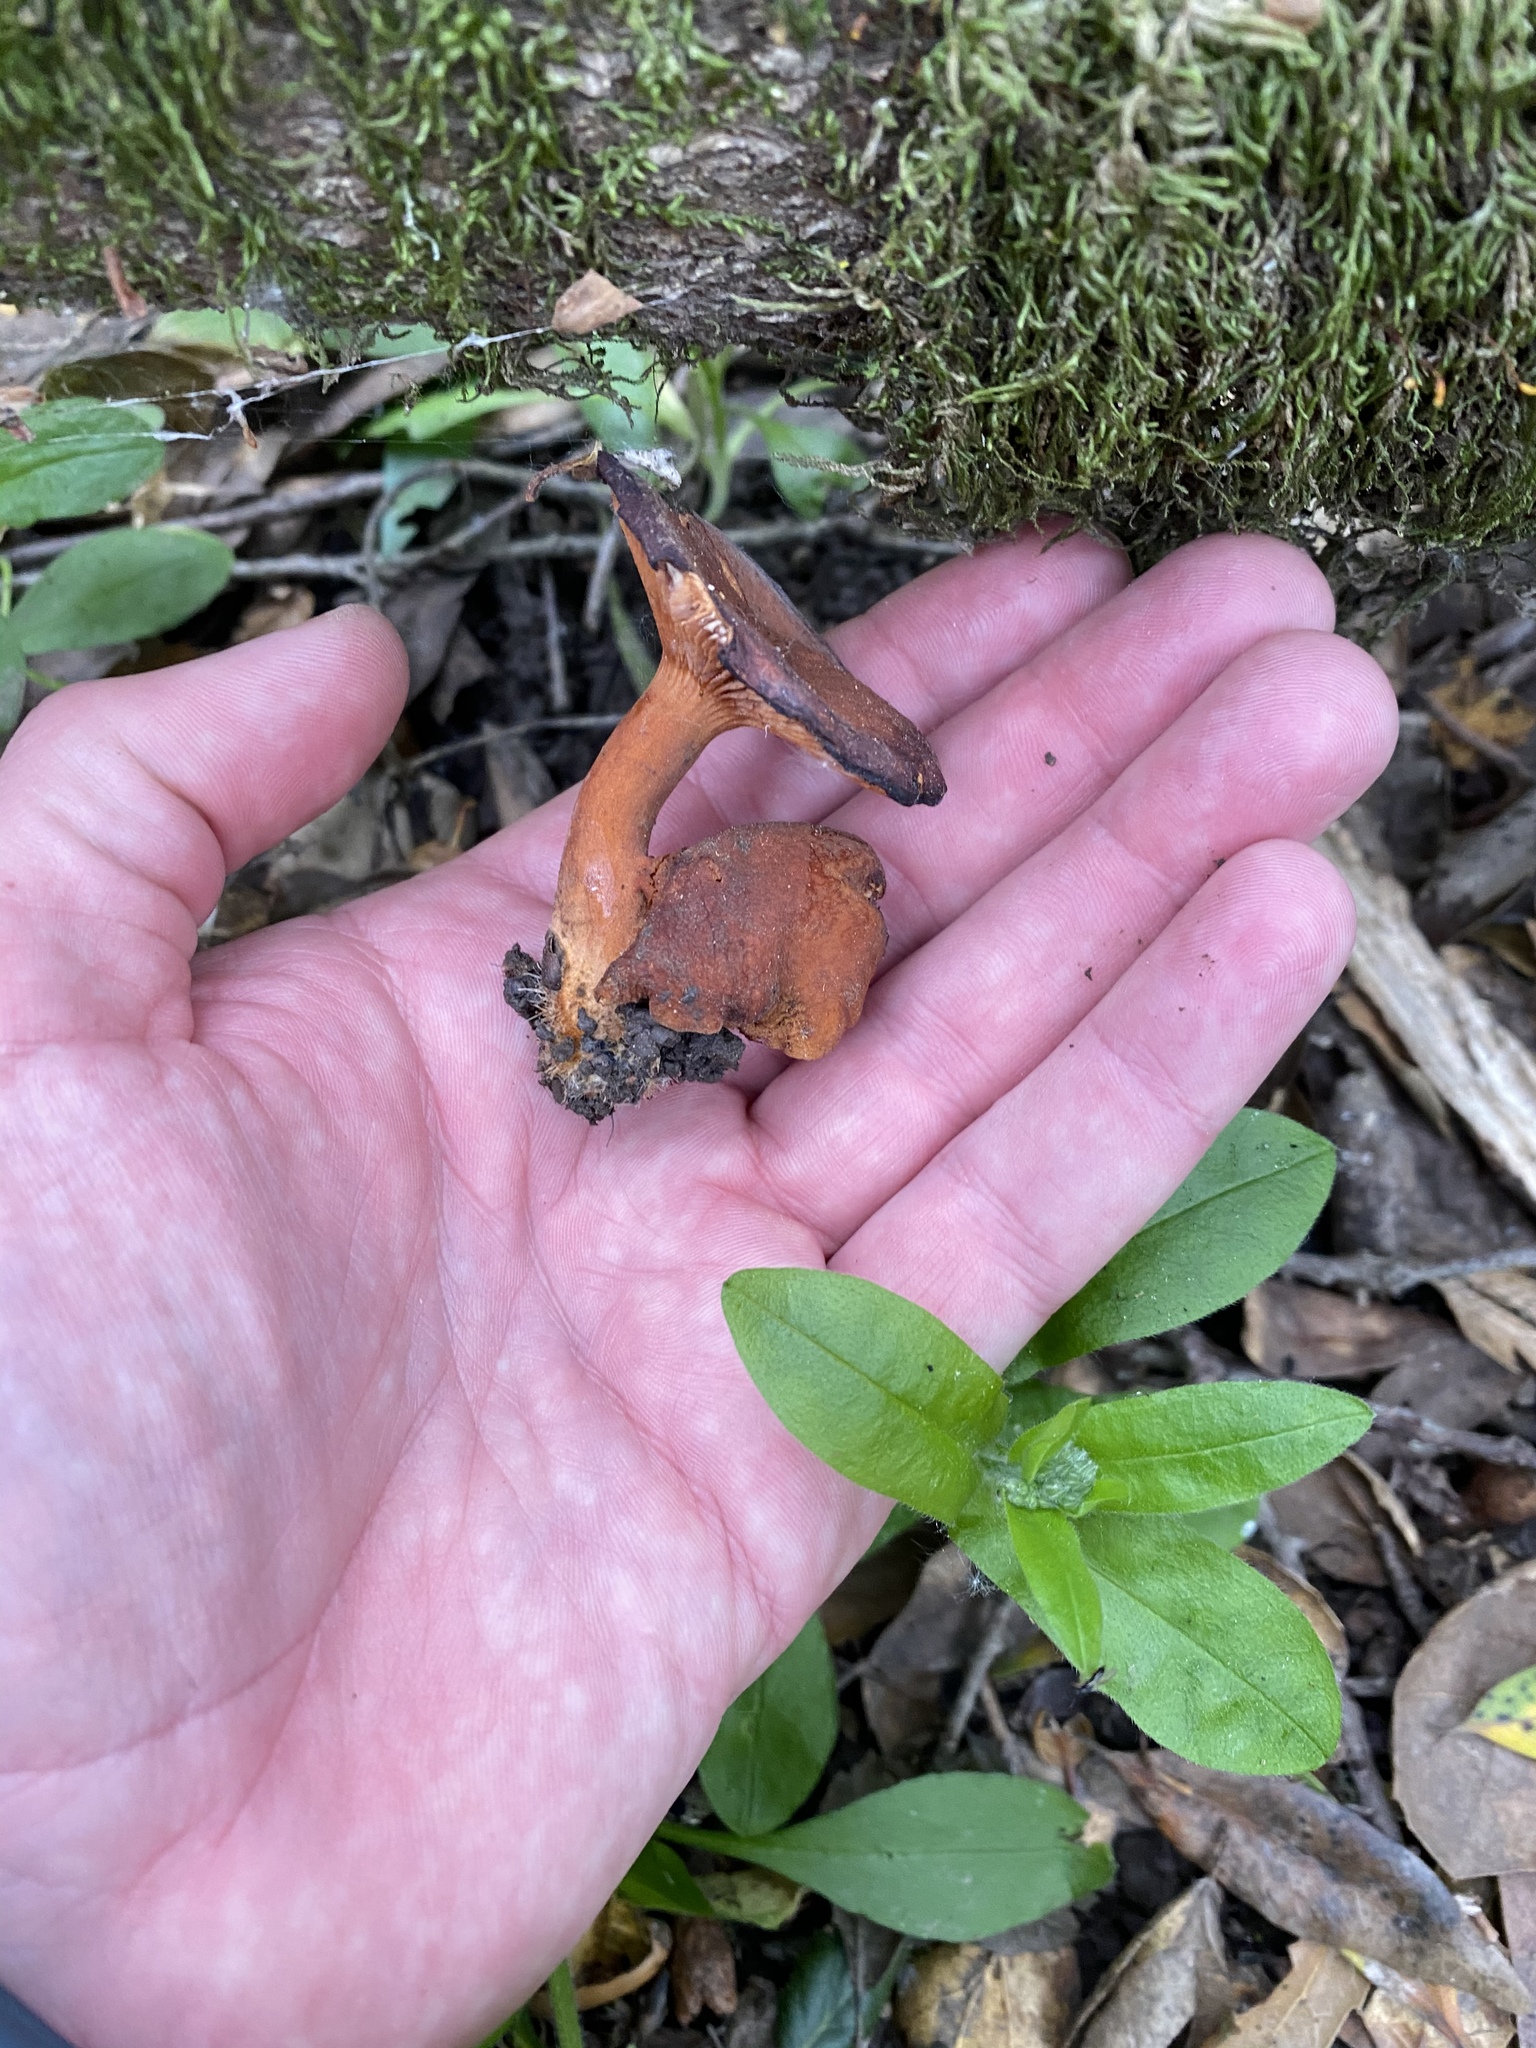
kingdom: Fungi
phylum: Basidiomycota
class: Agaricomycetes
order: Russulales
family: Russulaceae
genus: Lactarius
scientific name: Lactarius rufulus
